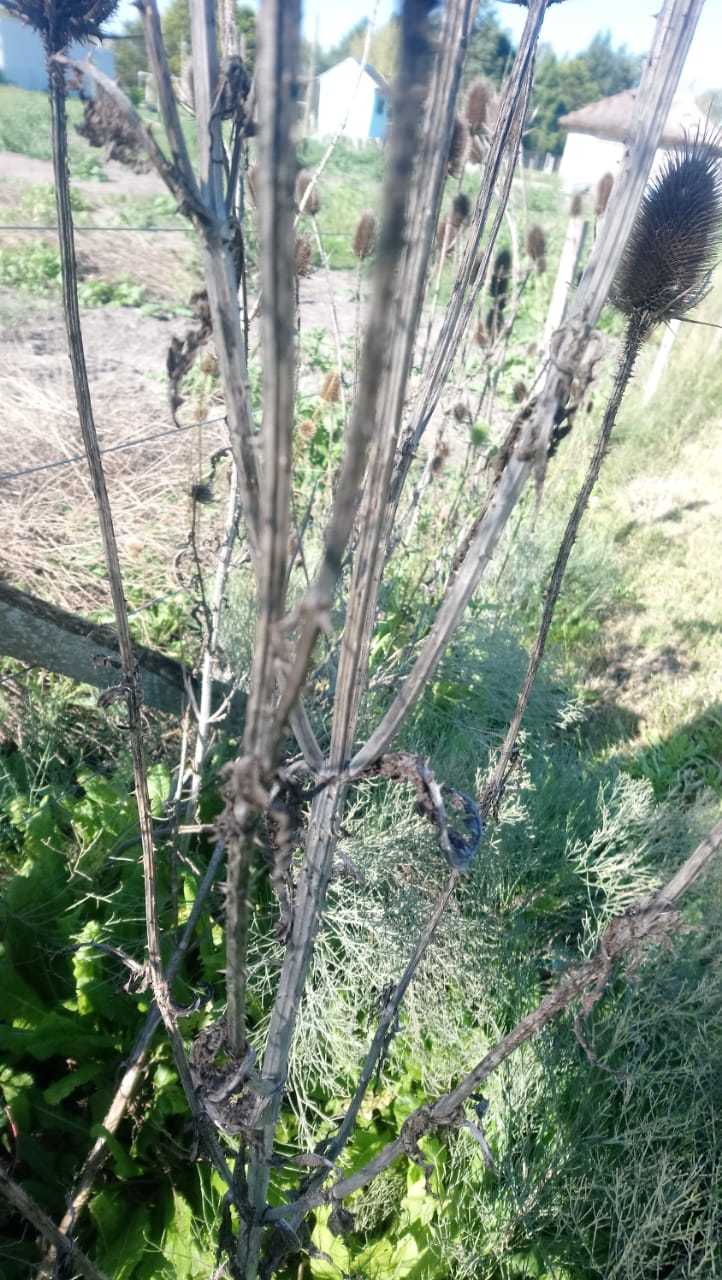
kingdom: Plantae
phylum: Tracheophyta
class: Magnoliopsida
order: Dipsacales
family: Caprifoliaceae
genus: Dipsacus
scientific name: Dipsacus fullonum
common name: Teasel
